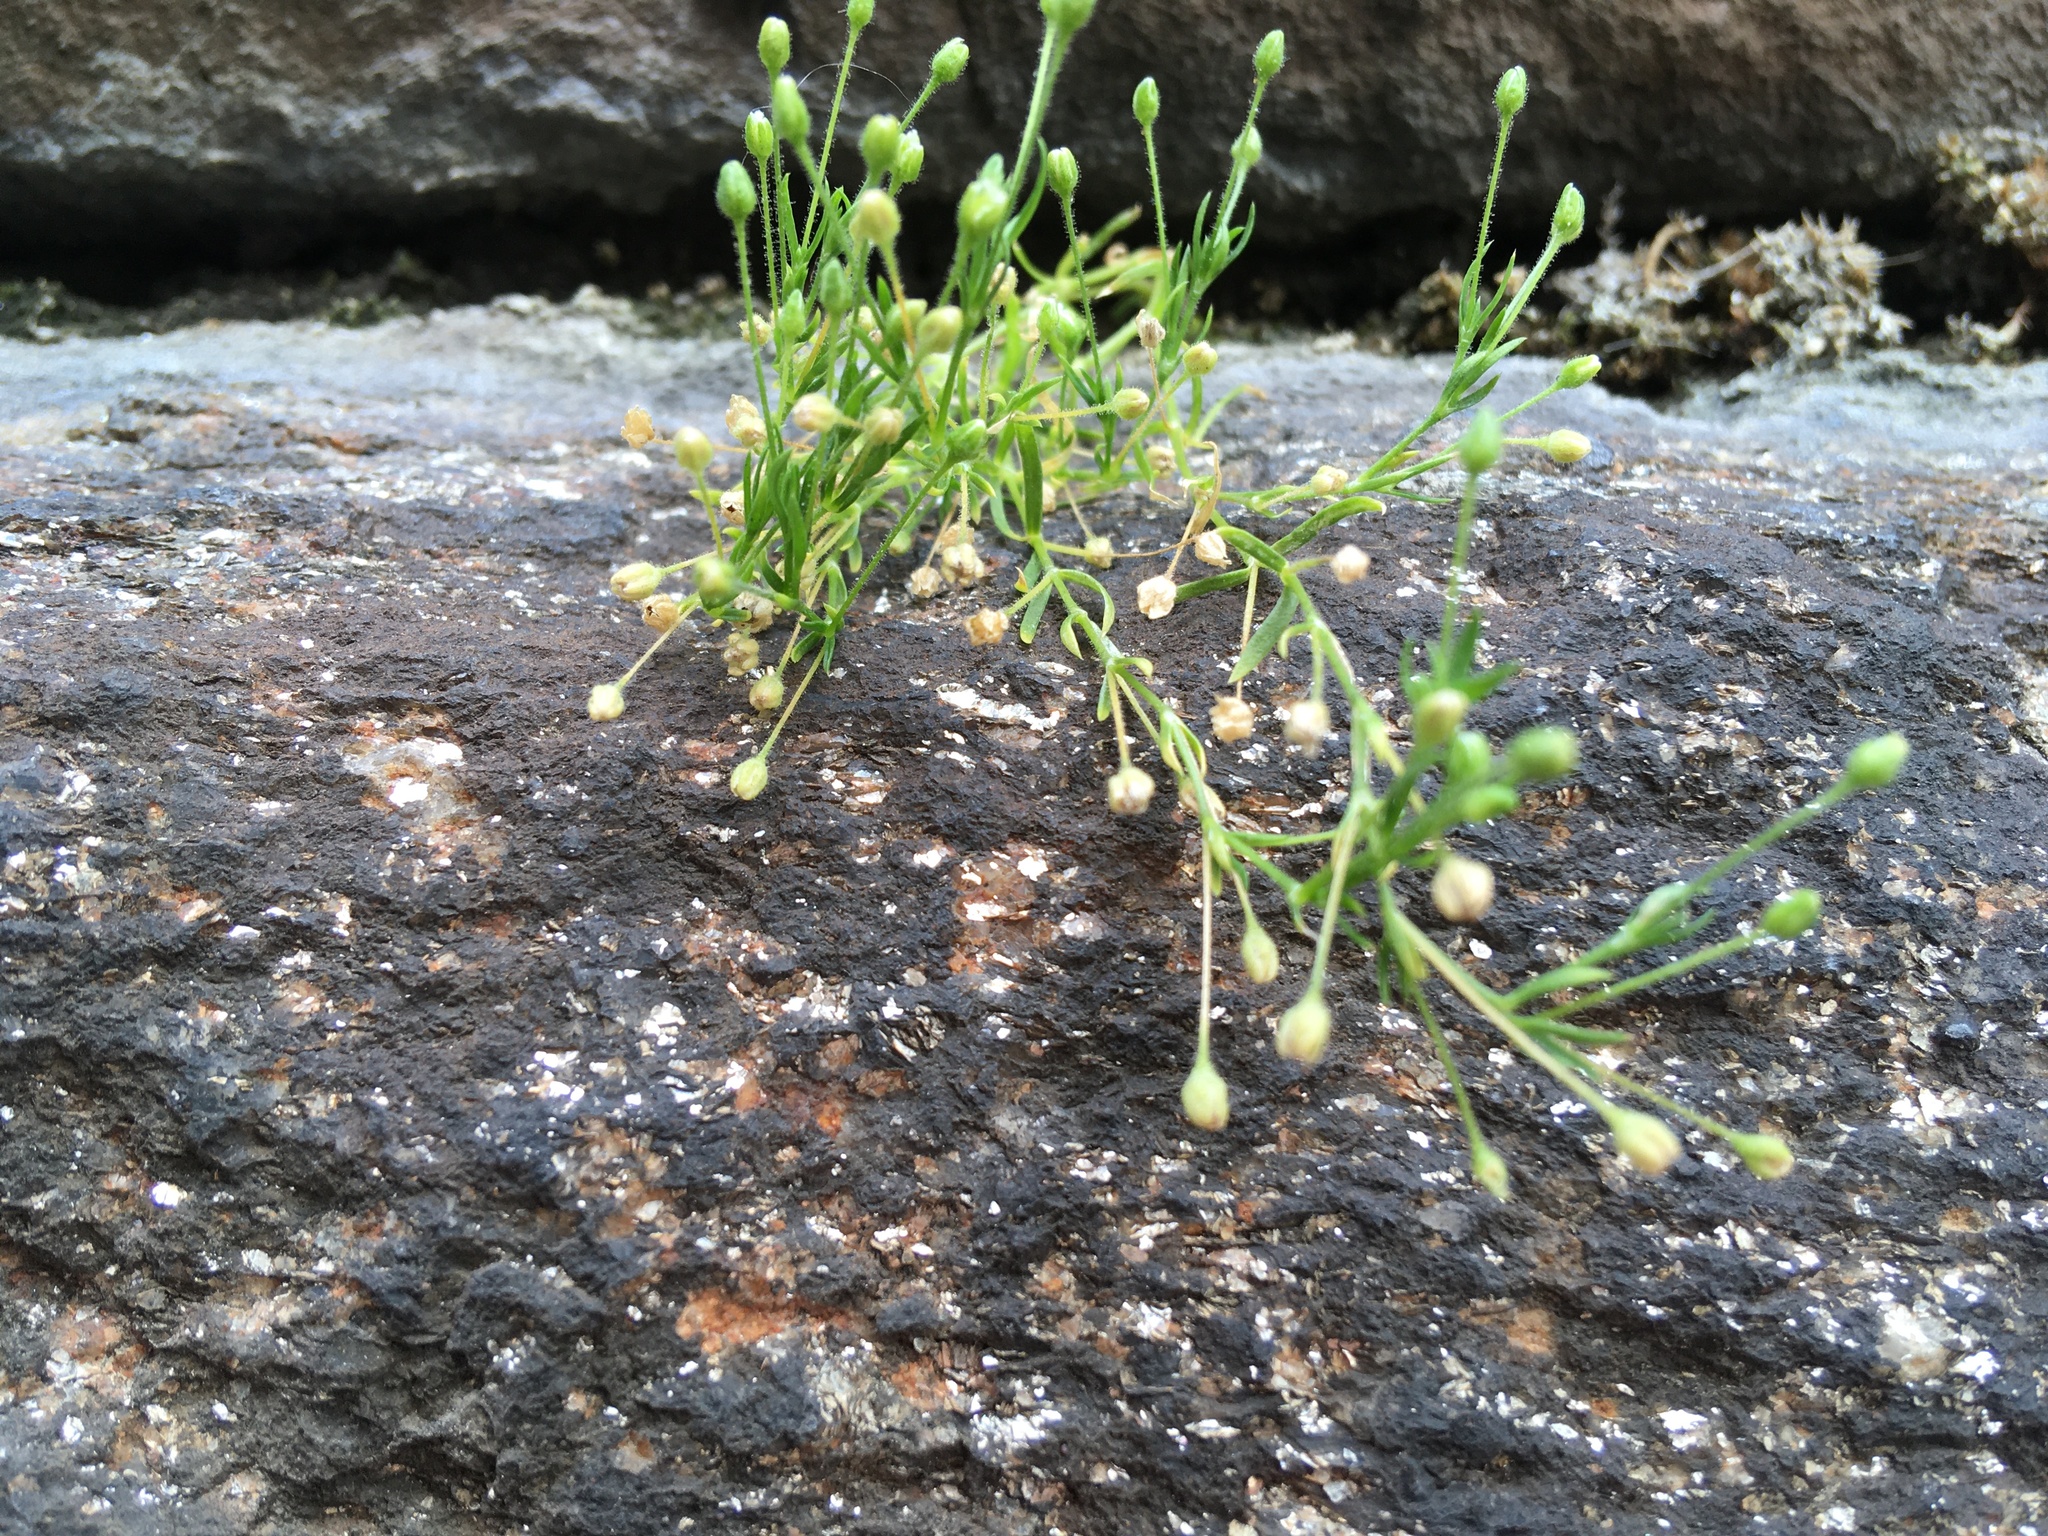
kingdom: Plantae
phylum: Tracheophyta
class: Magnoliopsida
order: Caryophyllales
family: Caryophyllaceae
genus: Sagina
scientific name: Sagina japonica
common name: Japanese pearlwort
